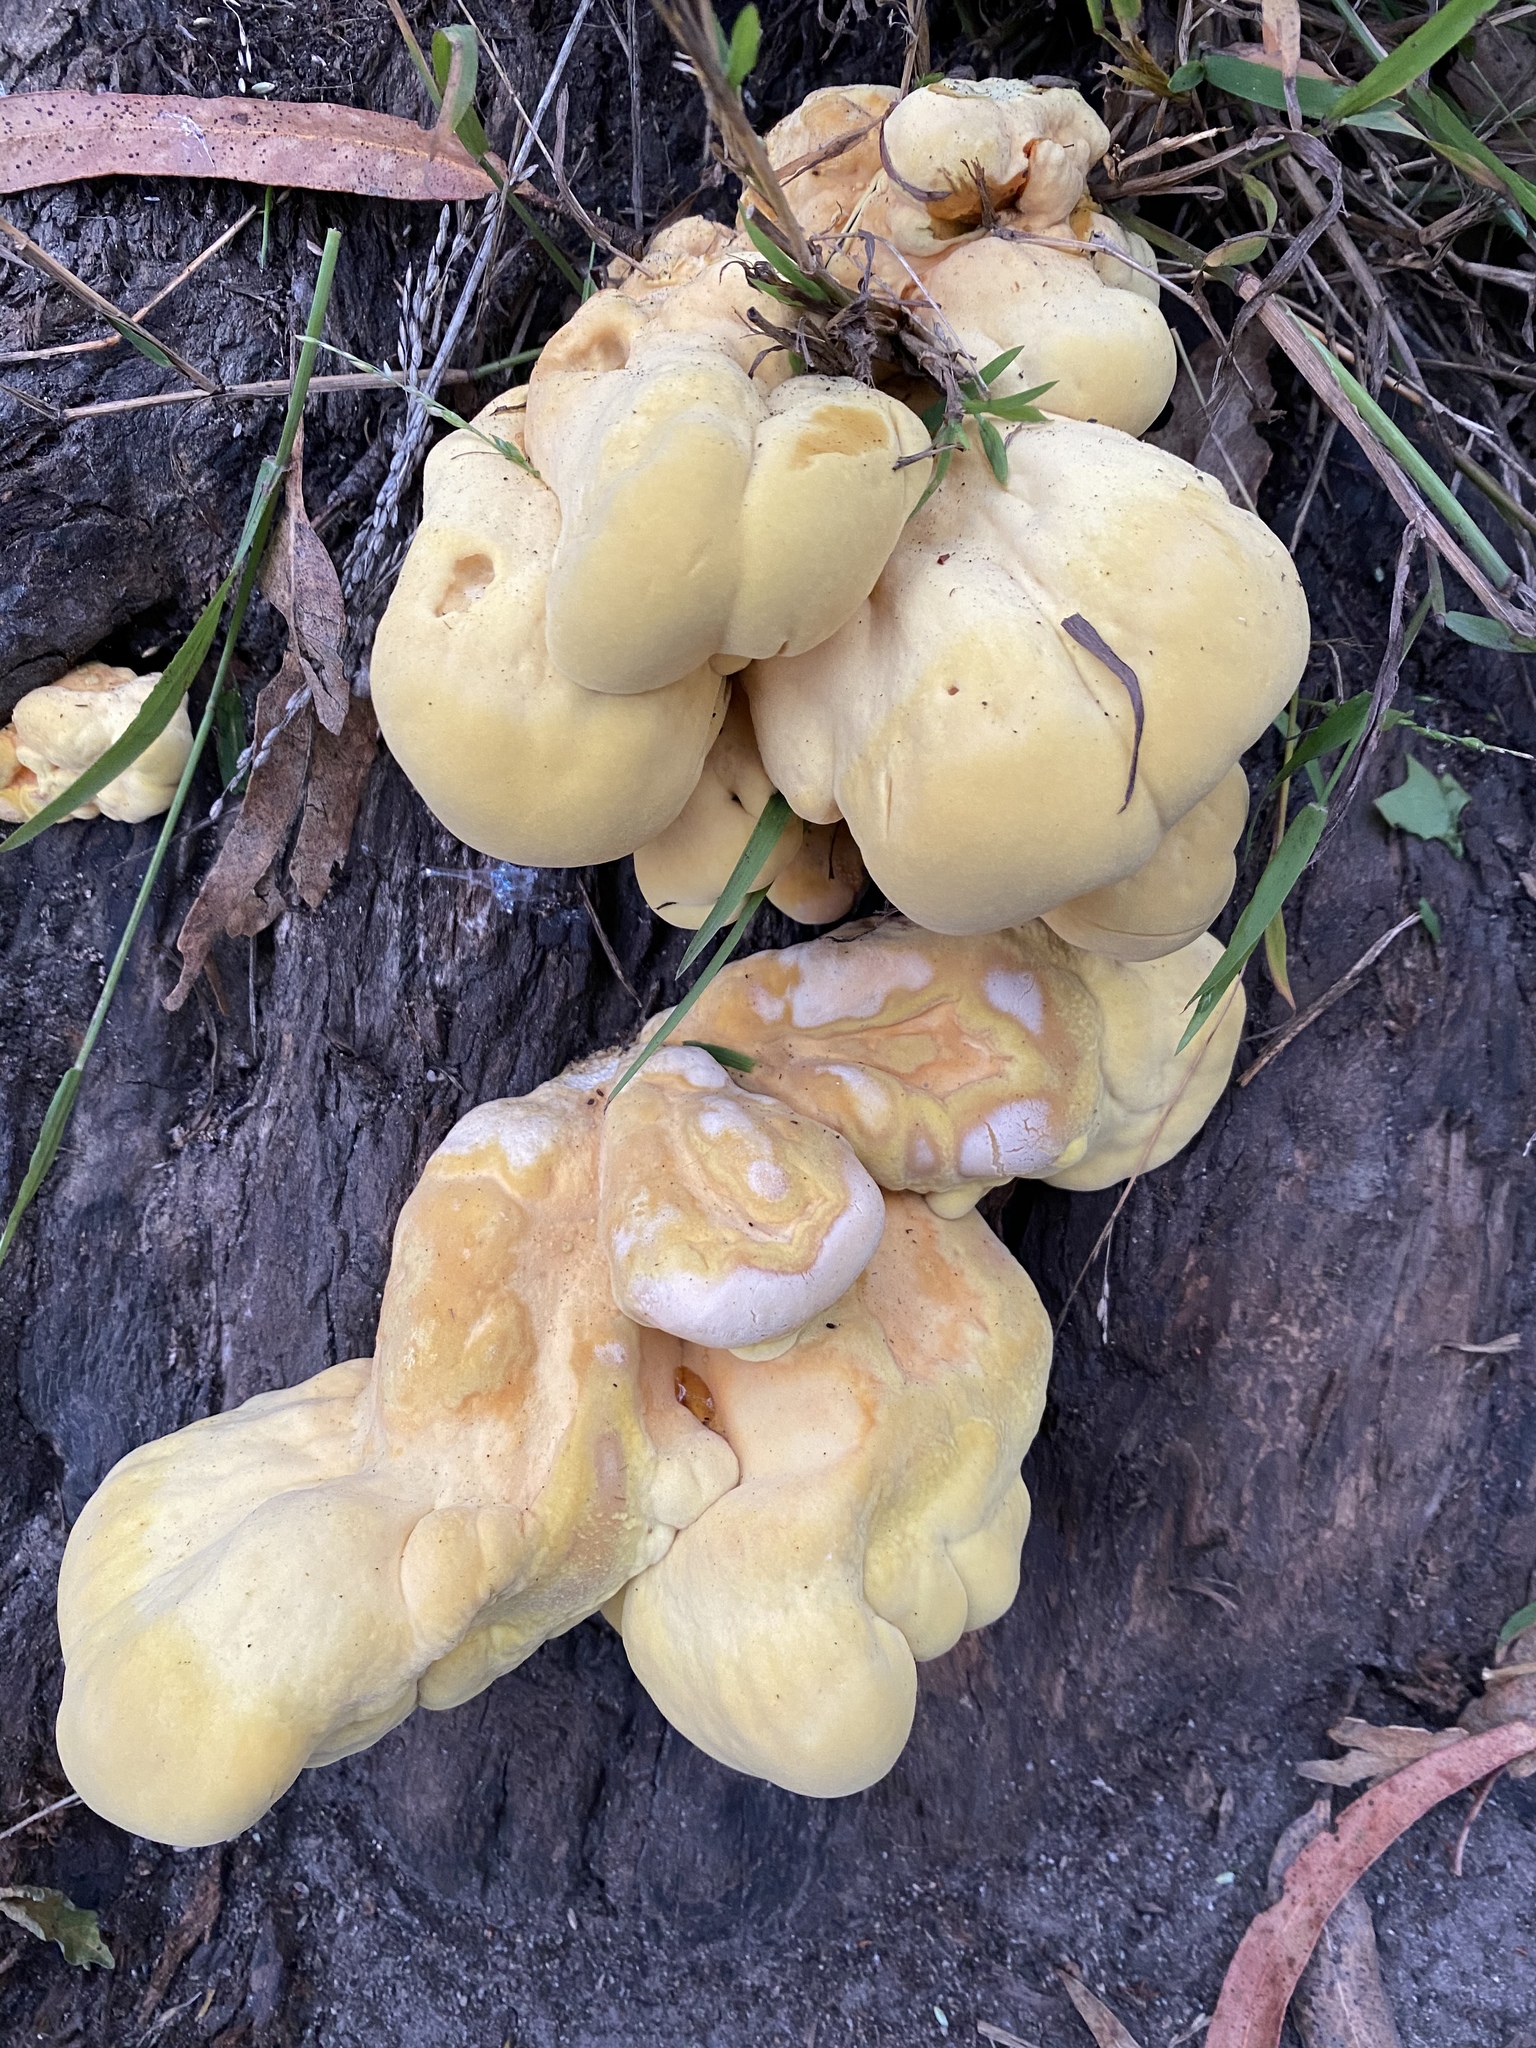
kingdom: Fungi
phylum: Basidiomycota
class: Agaricomycetes
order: Polyporales
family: Laetiporaceae
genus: Laetiporus
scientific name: Laetiporus gilbertsonii
